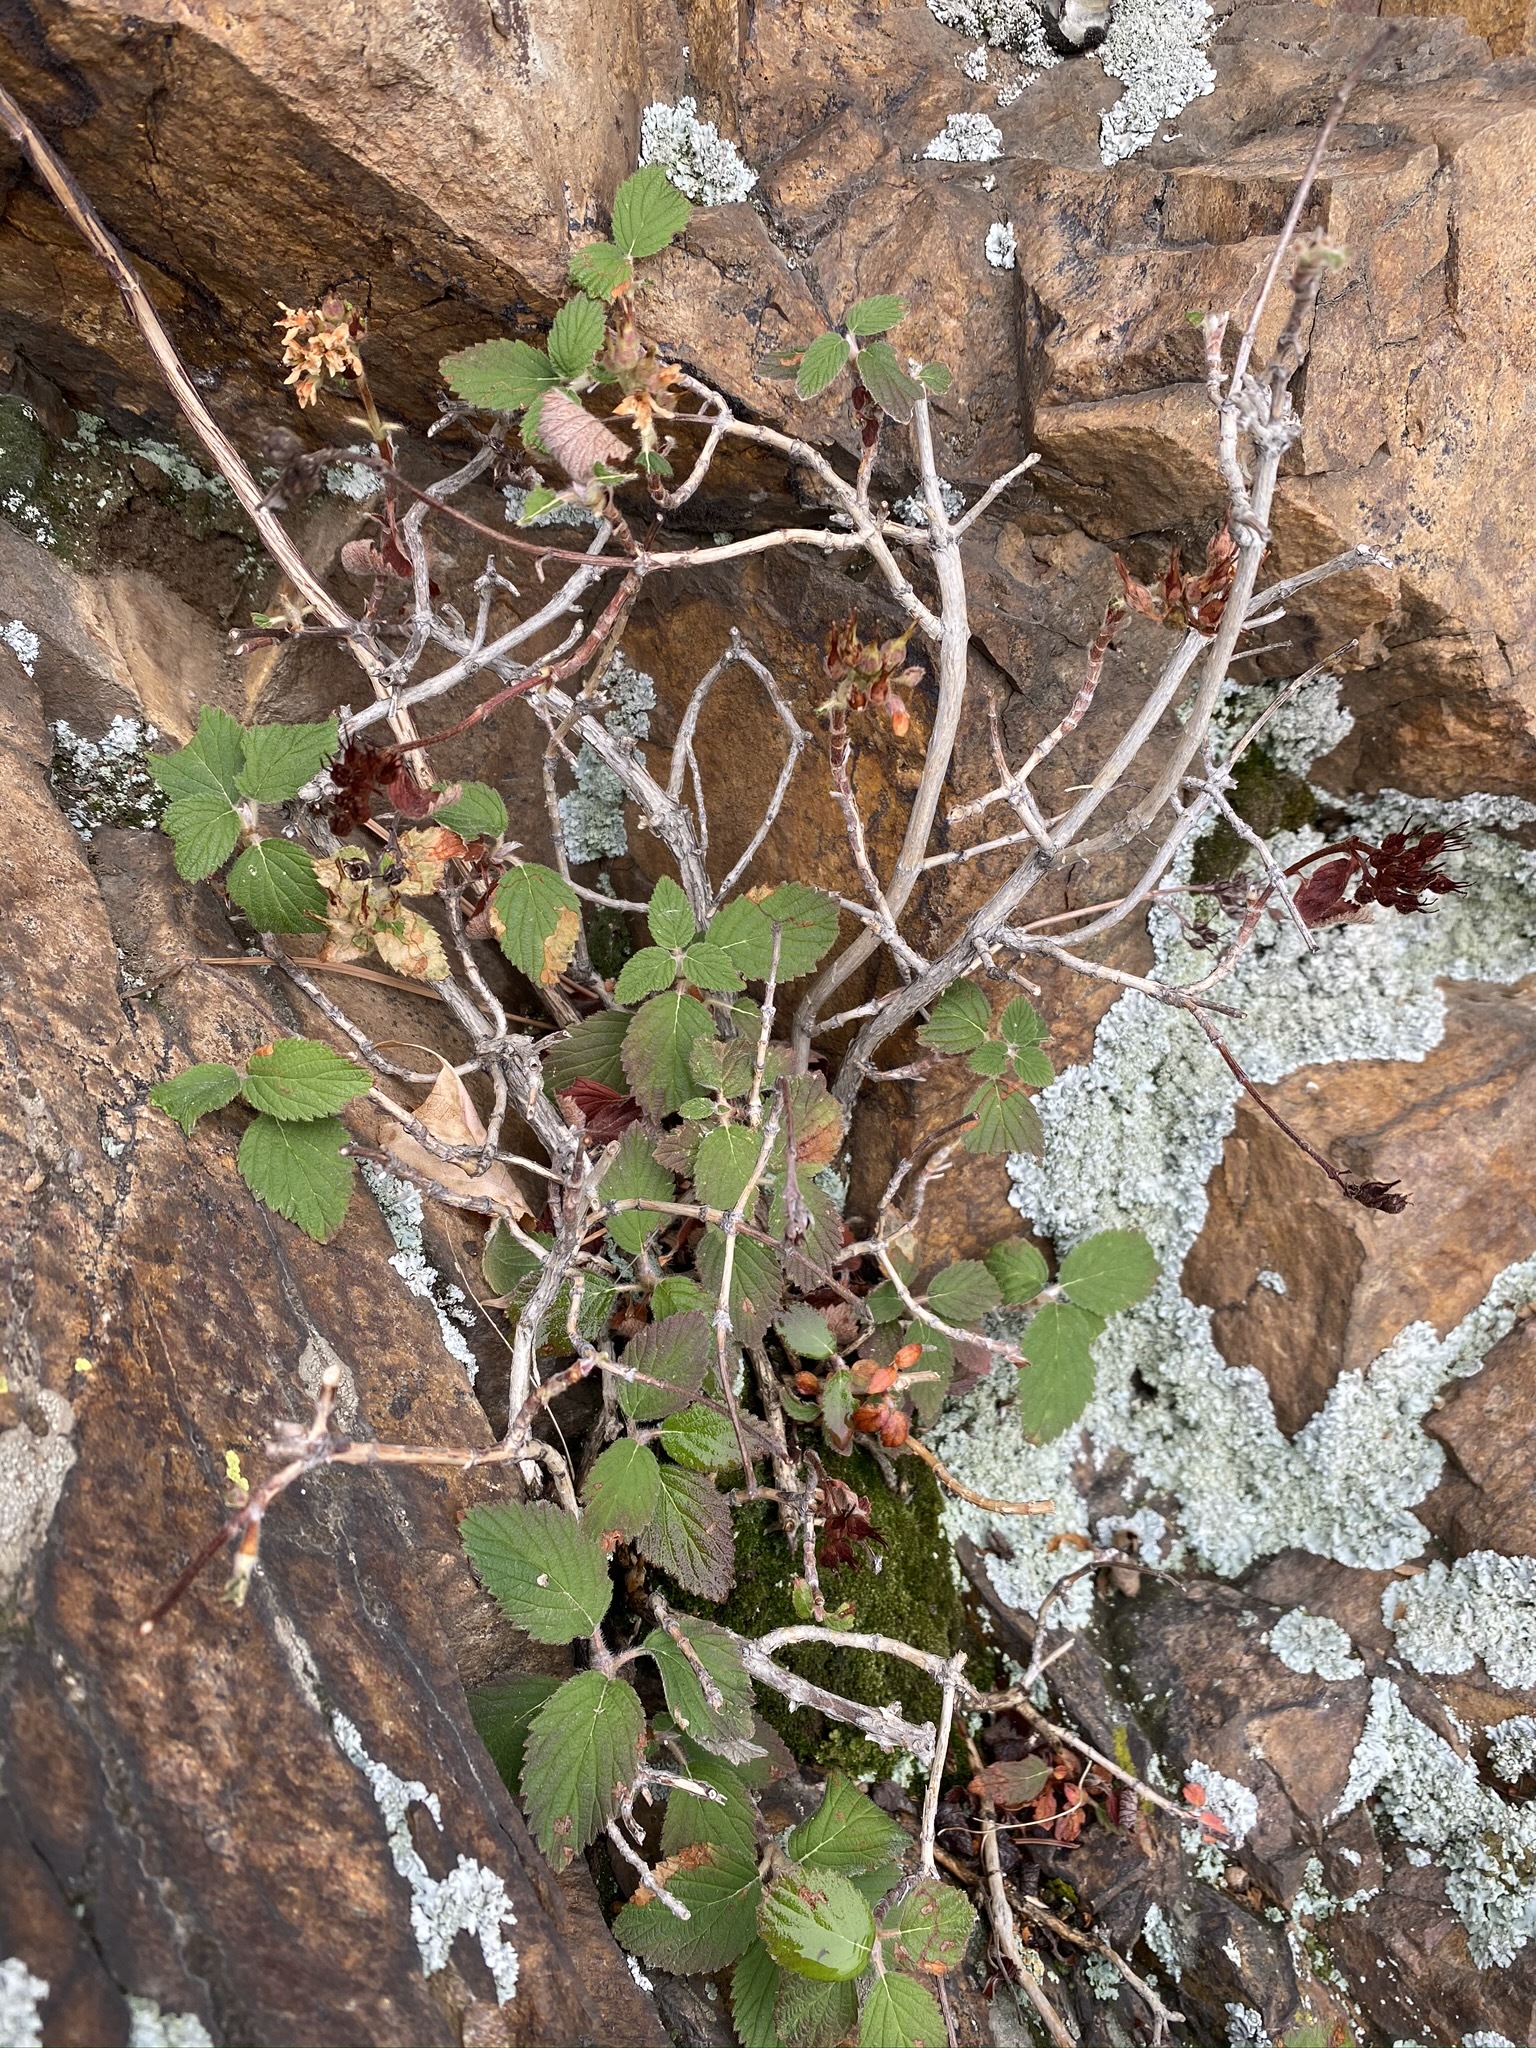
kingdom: Plantae
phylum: Tracheophyta
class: Magnoliopsida
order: Cornales
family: Hydrangeaceae
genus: Jamesia
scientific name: Jamesia americana
